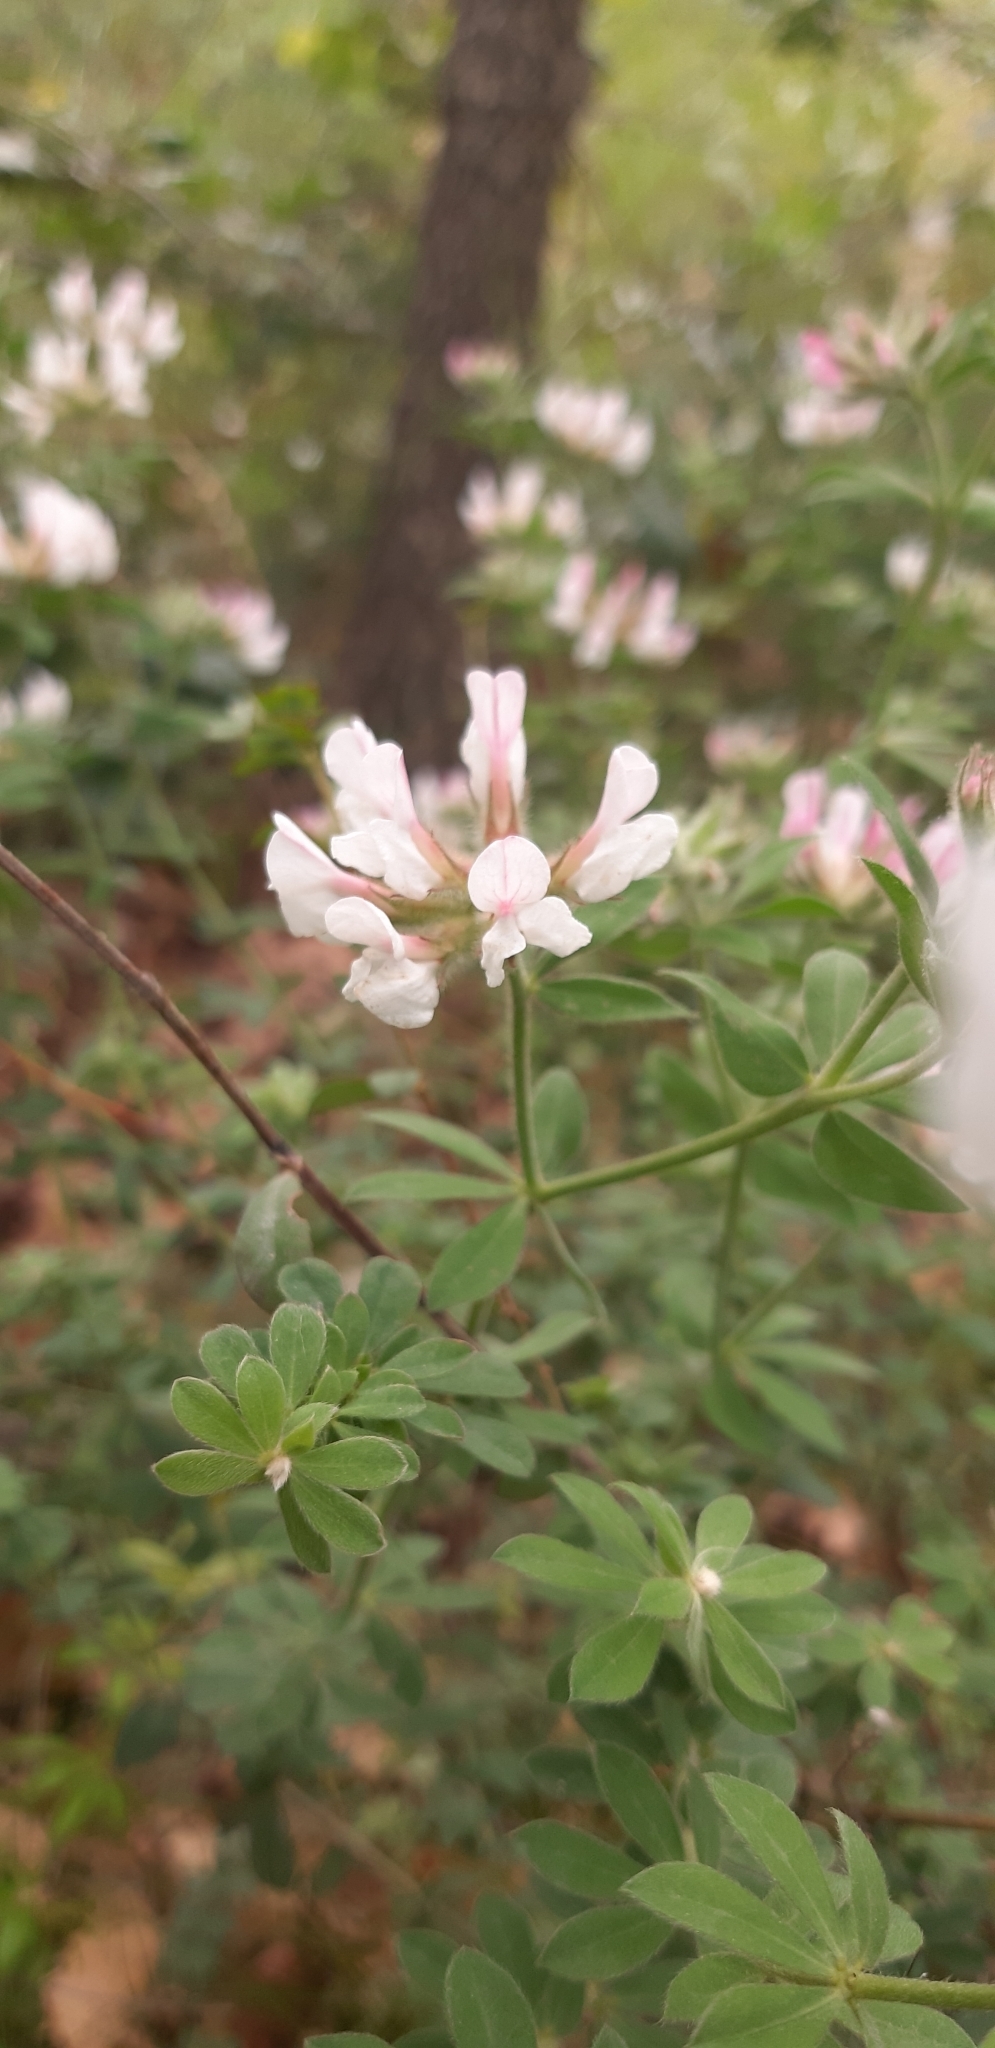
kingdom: Plantae
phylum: Tracheophyta
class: Magnoliopsida
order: Fabales
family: Fabaceae
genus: Lotus
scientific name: Lotus hirsutus
